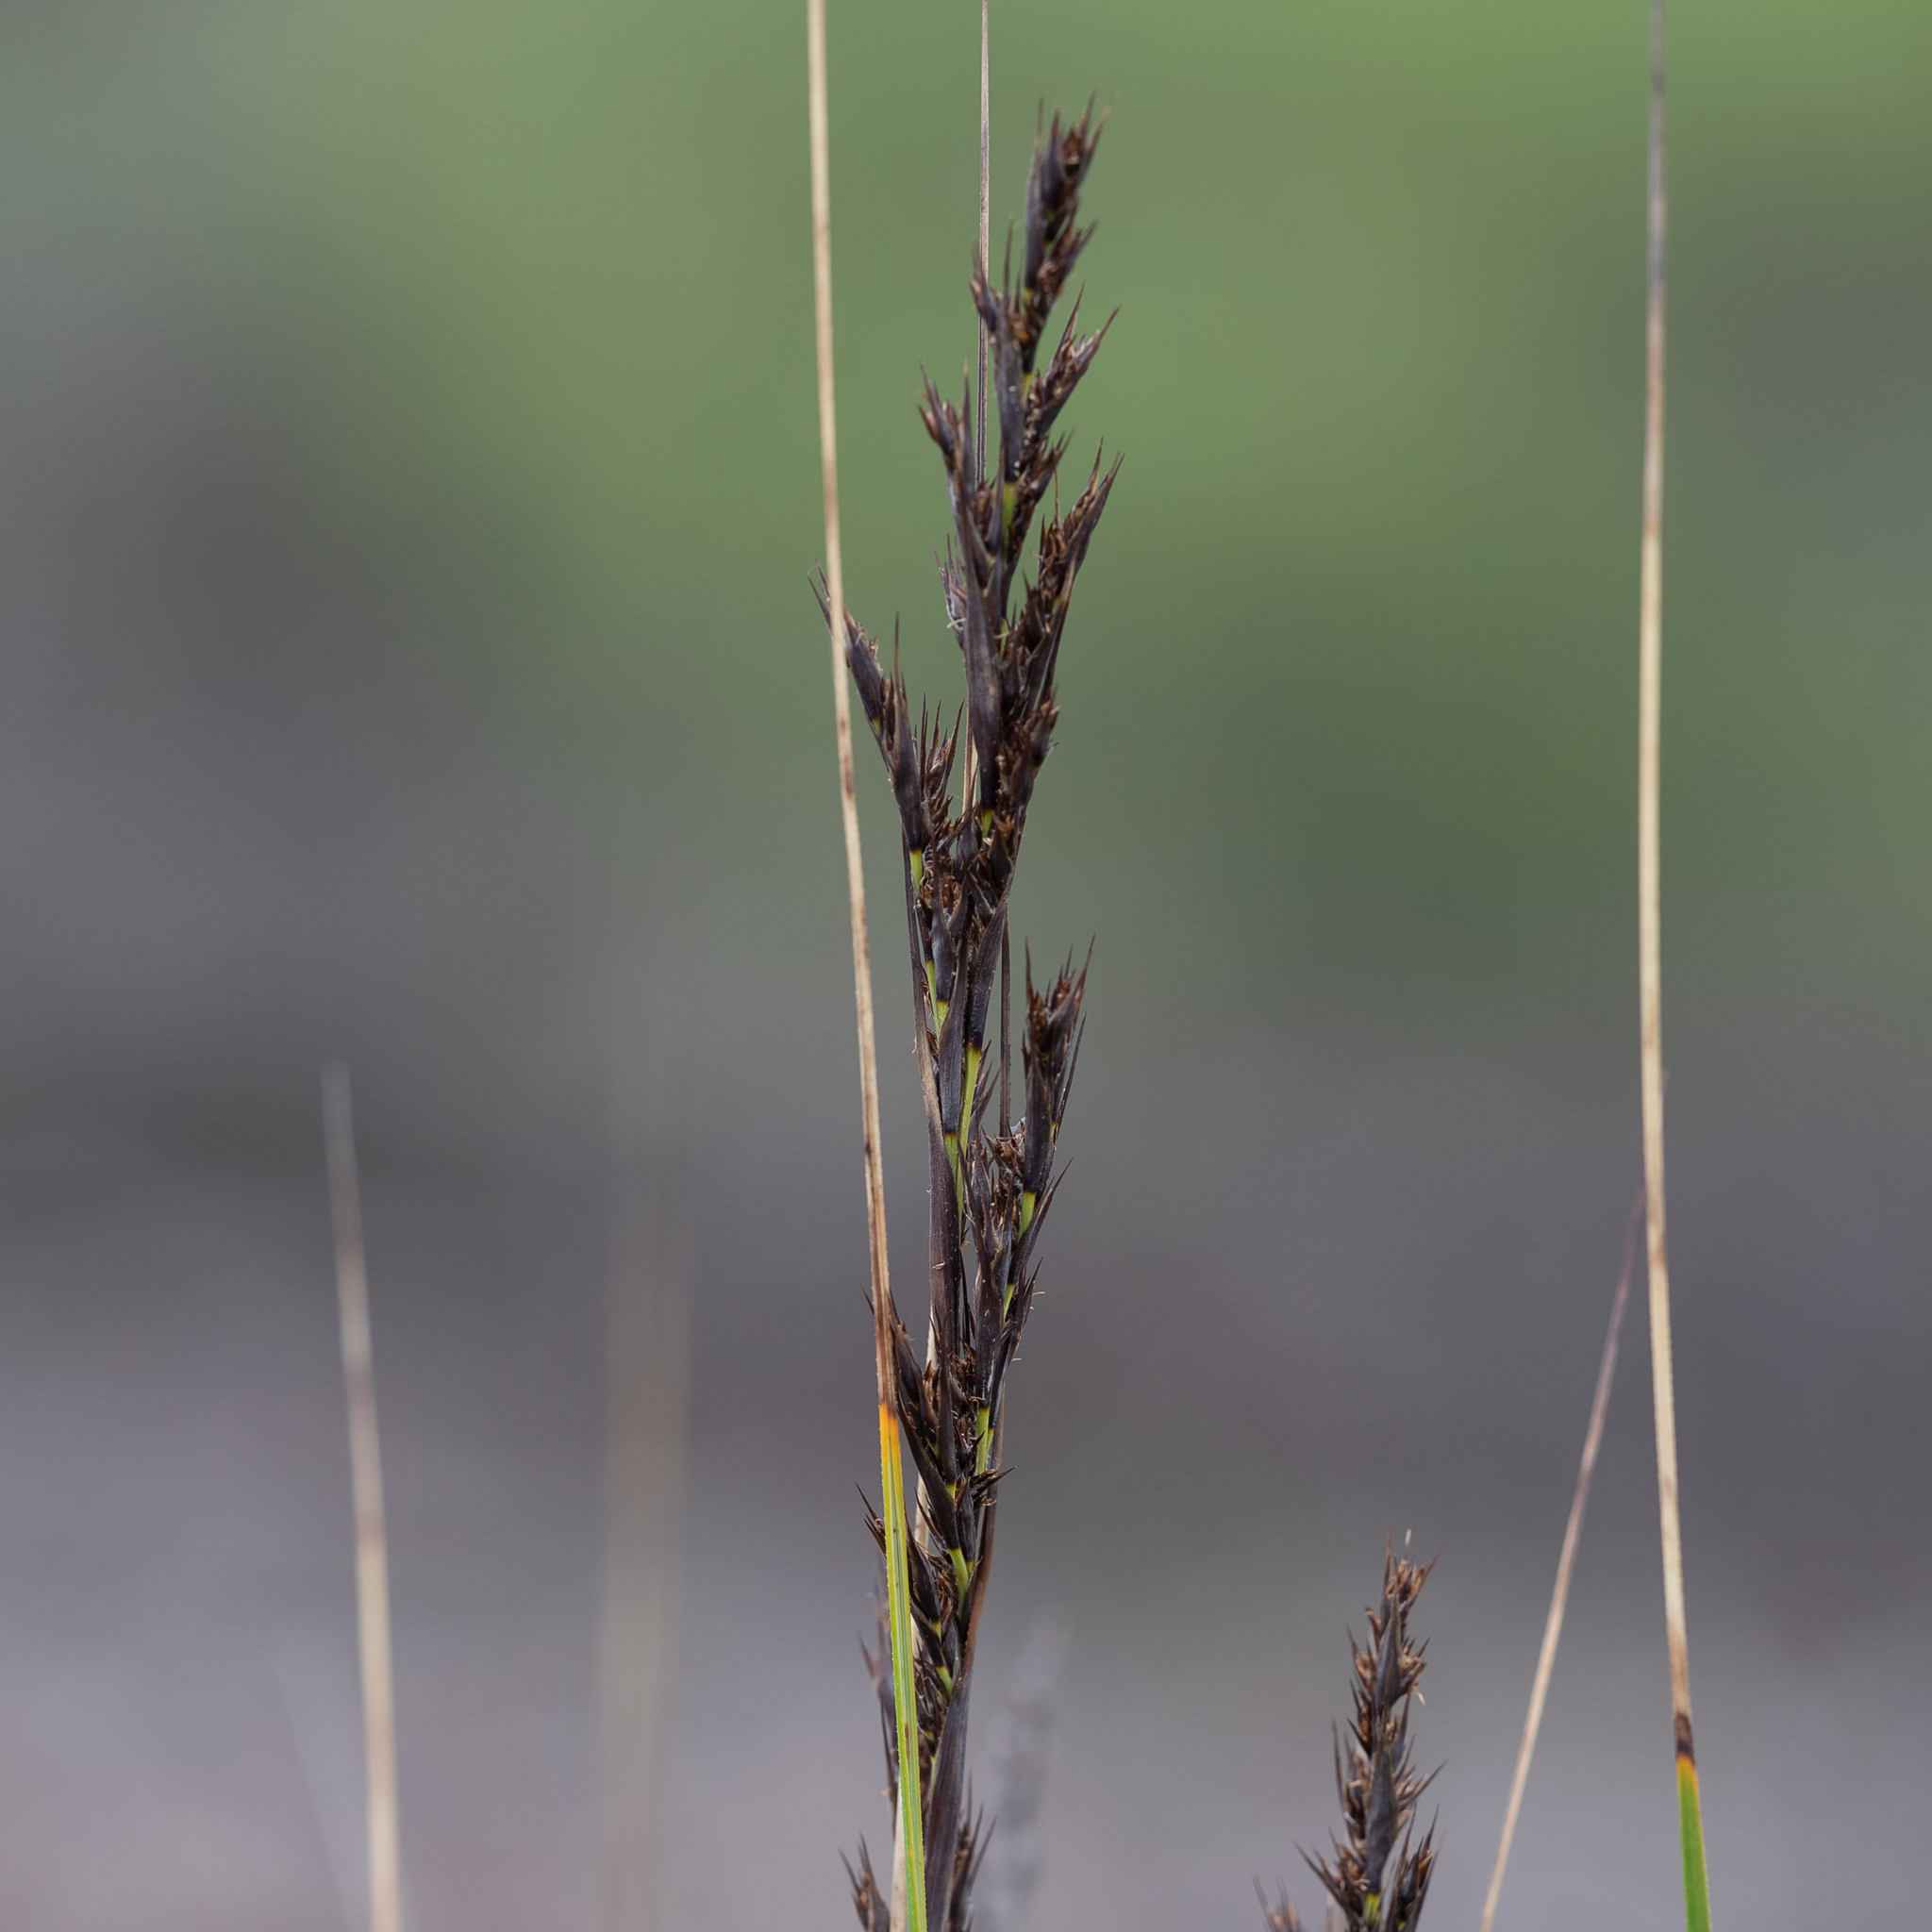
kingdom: Plantae
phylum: Tracheophyta
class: Liliopsida
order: Poales
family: Cyperaceae
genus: Gahnia
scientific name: Gahnia deusta
